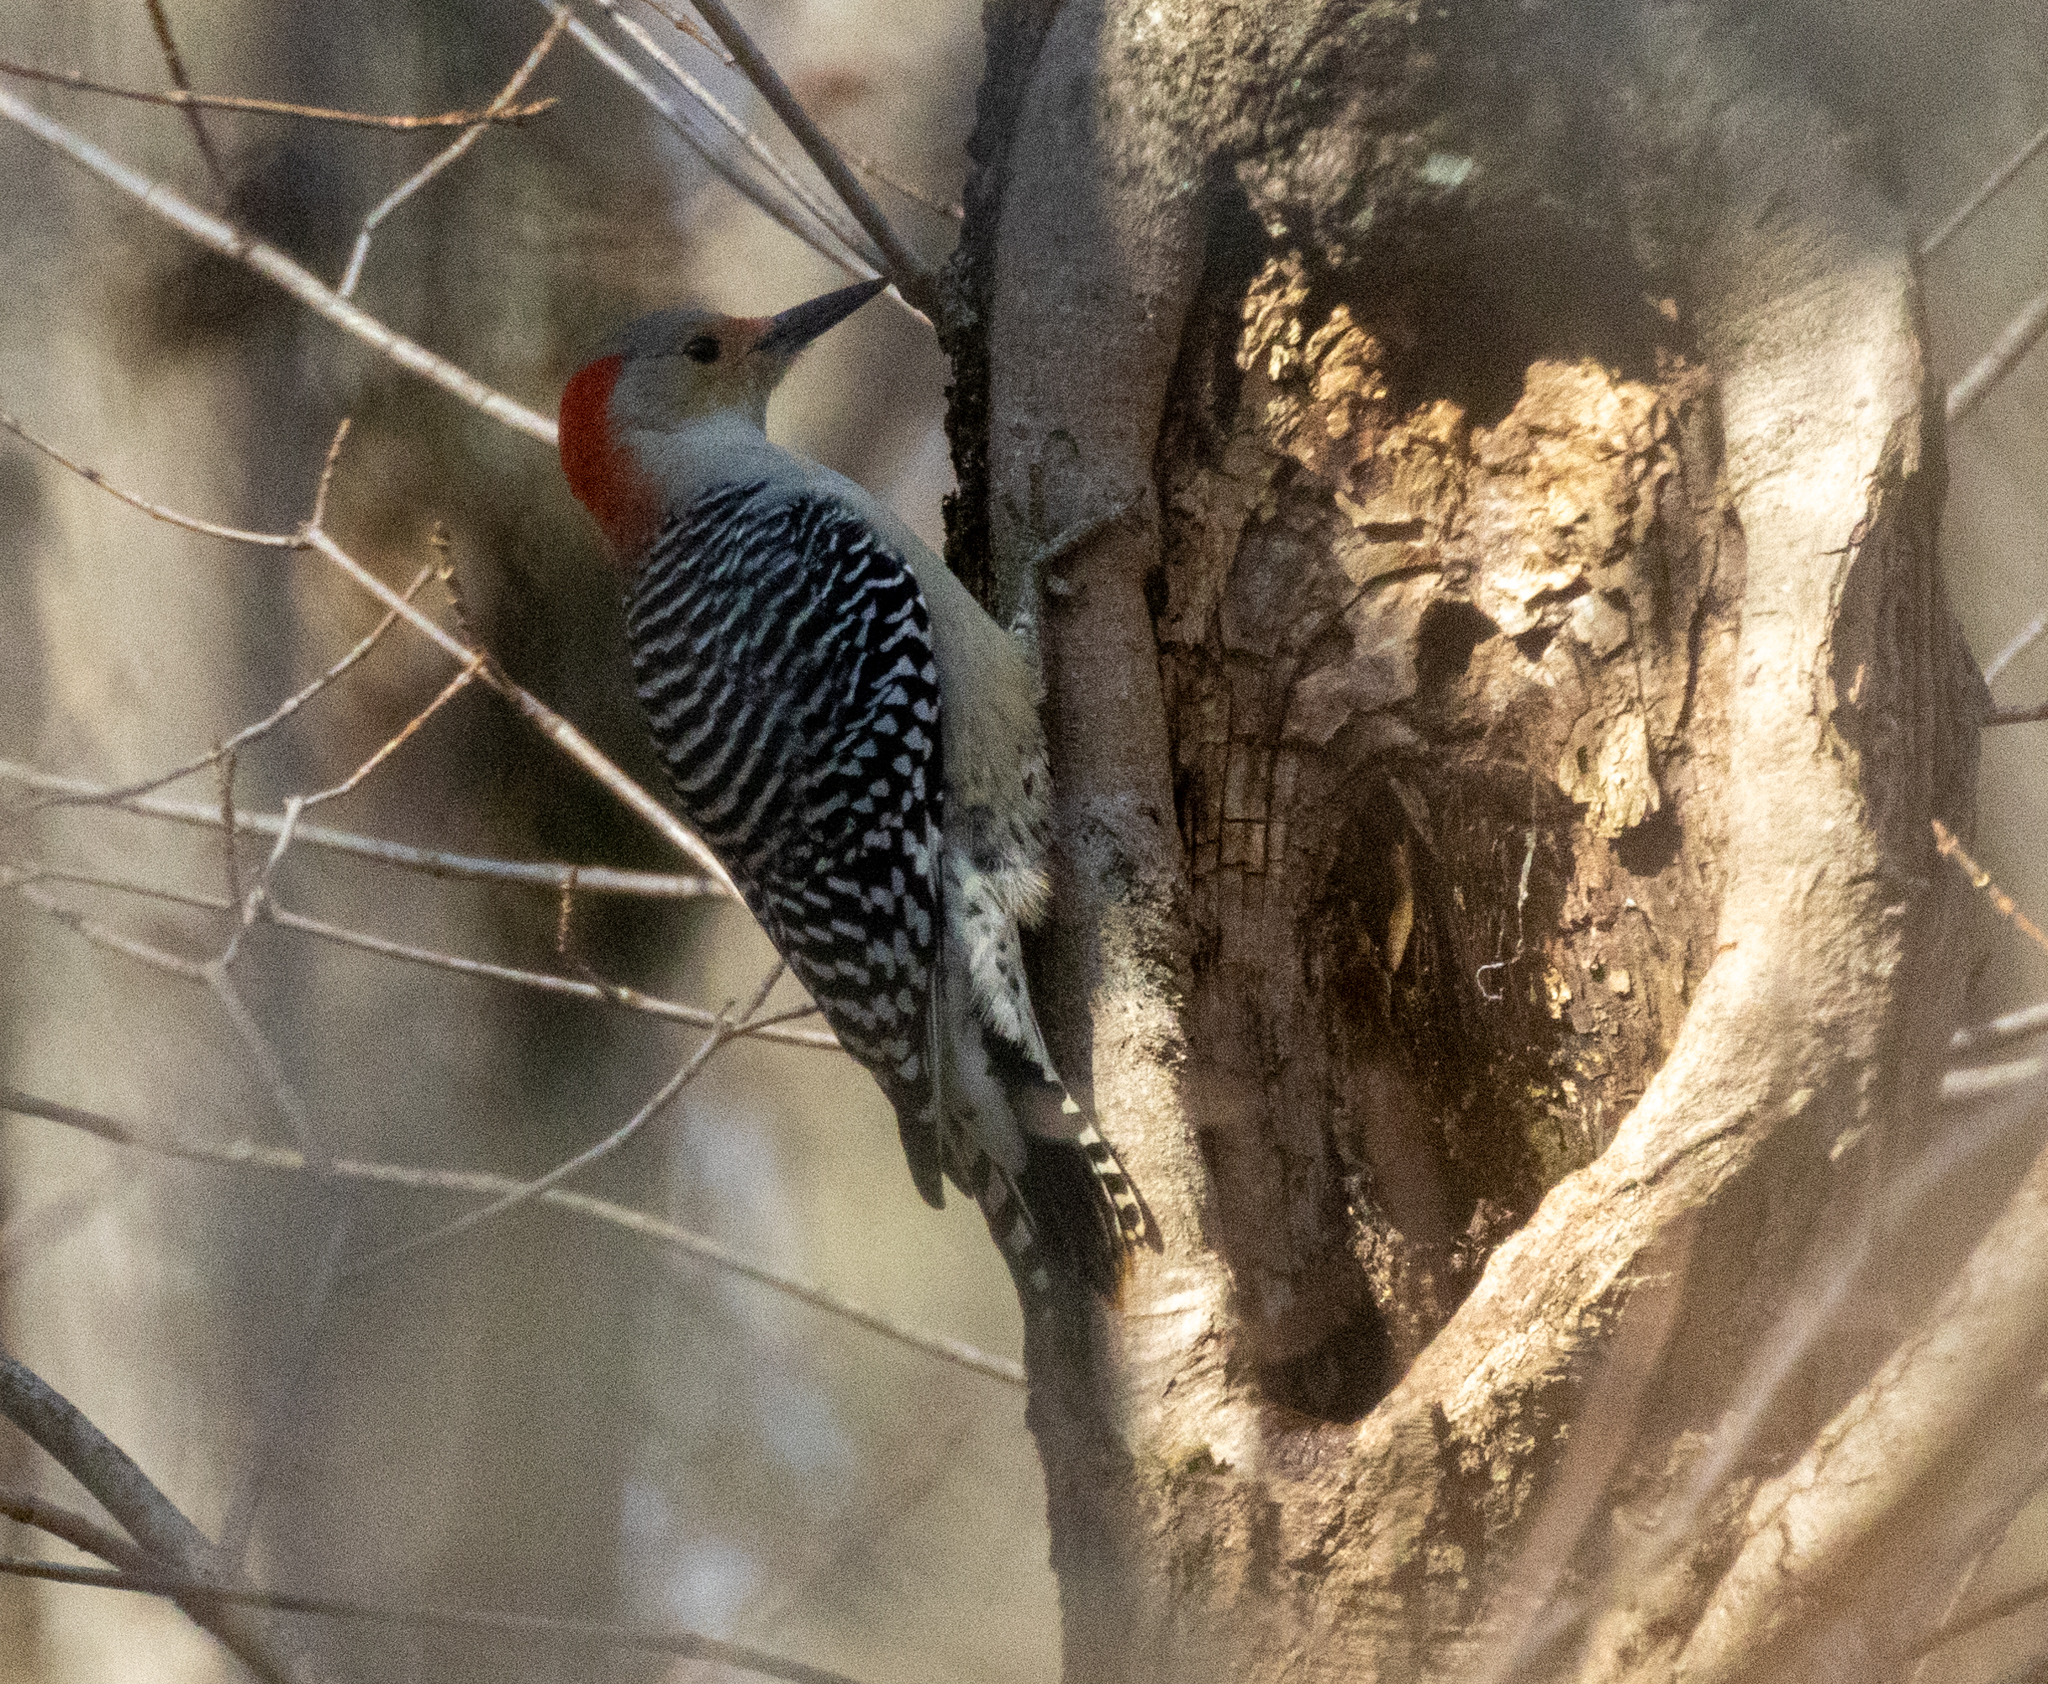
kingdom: Animalia
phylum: Chordata
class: Aves
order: Piciformes
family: Picidae
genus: Melanerpes
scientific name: Melanerpes carolinus
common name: Red-bellied woodpecker
